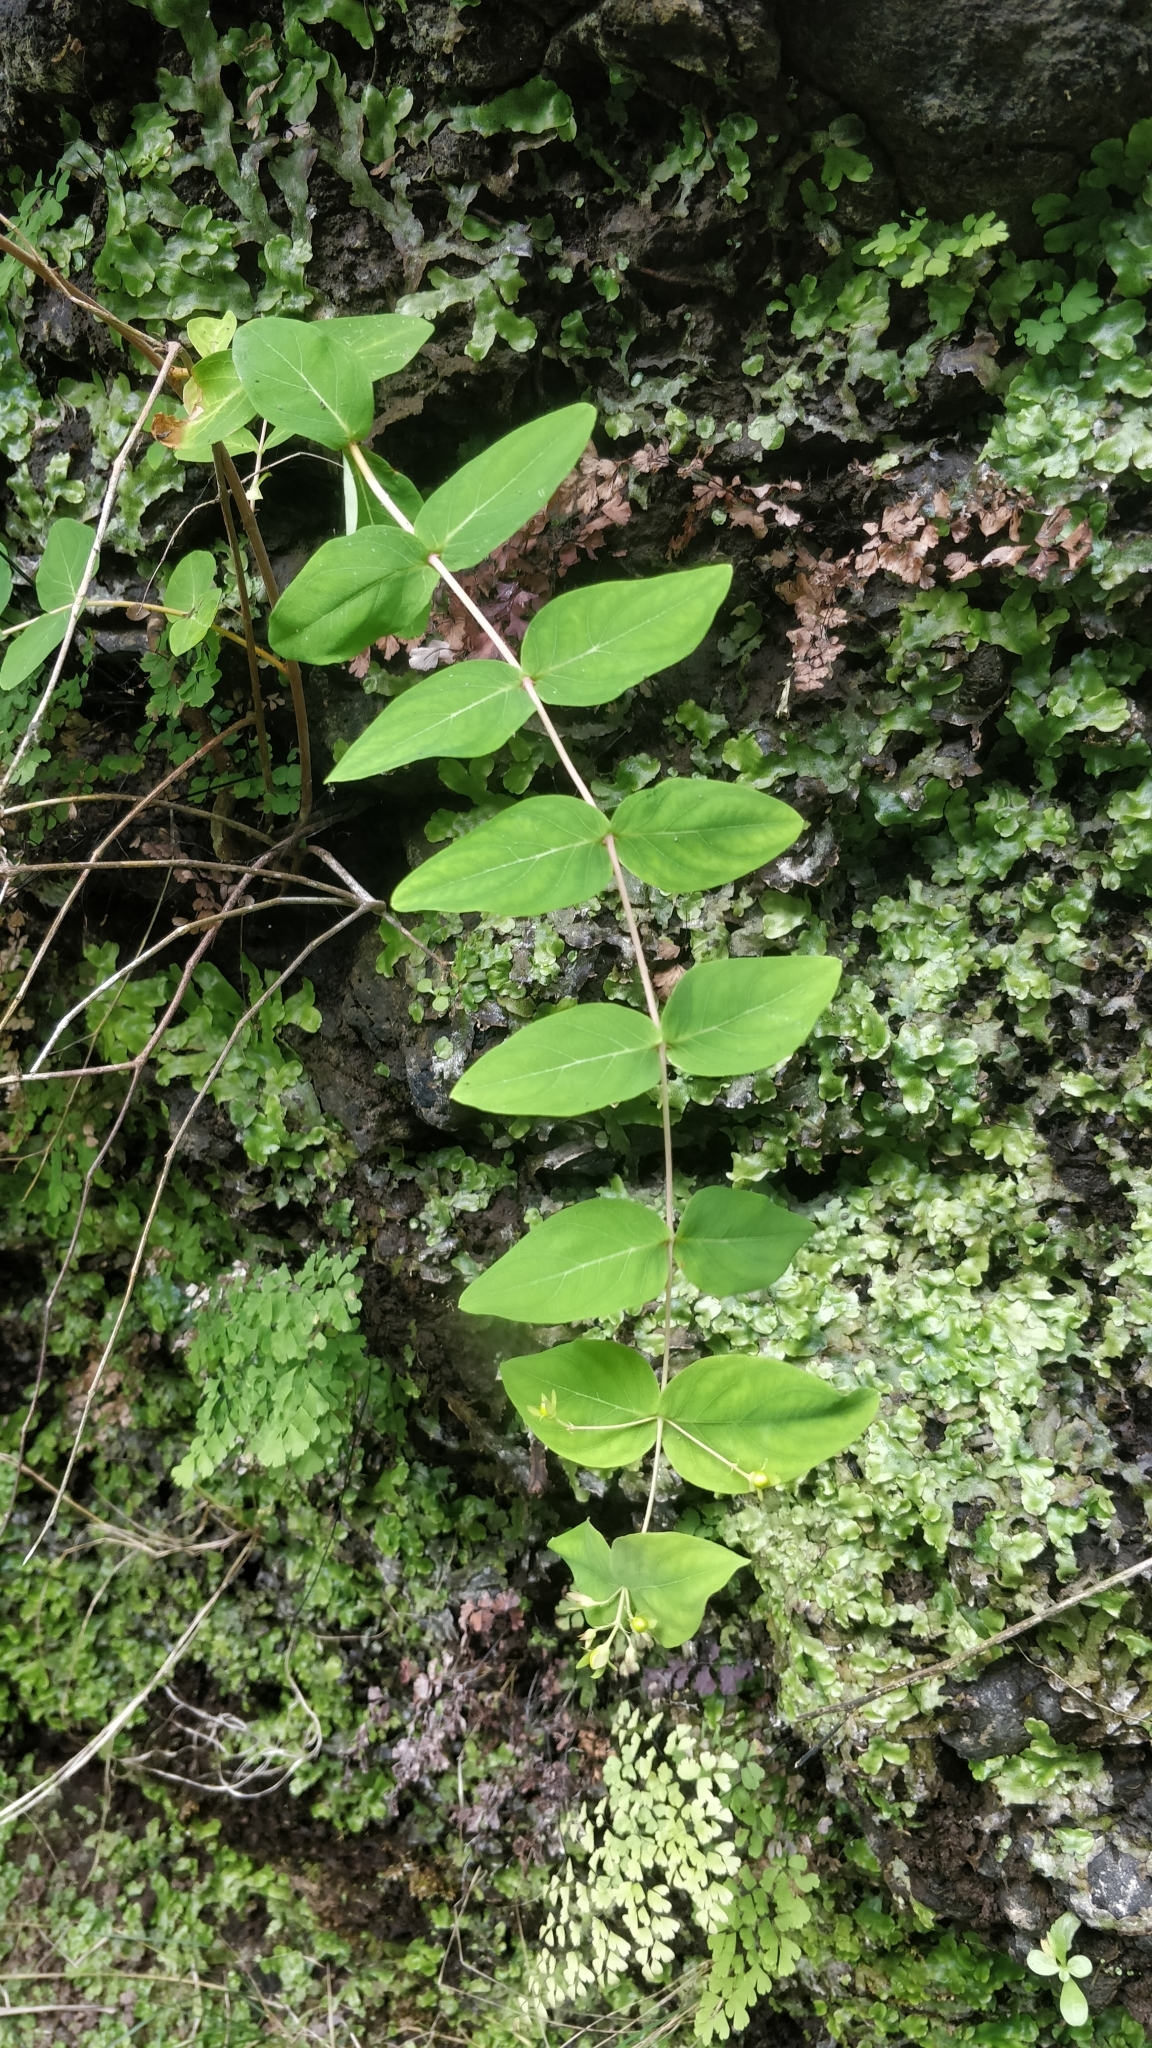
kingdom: Plantae
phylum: Tracheophyta
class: Magnoliopsida
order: Malpighiales
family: Hypericaceae
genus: Hypericum
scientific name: Hypericum grandifolium
